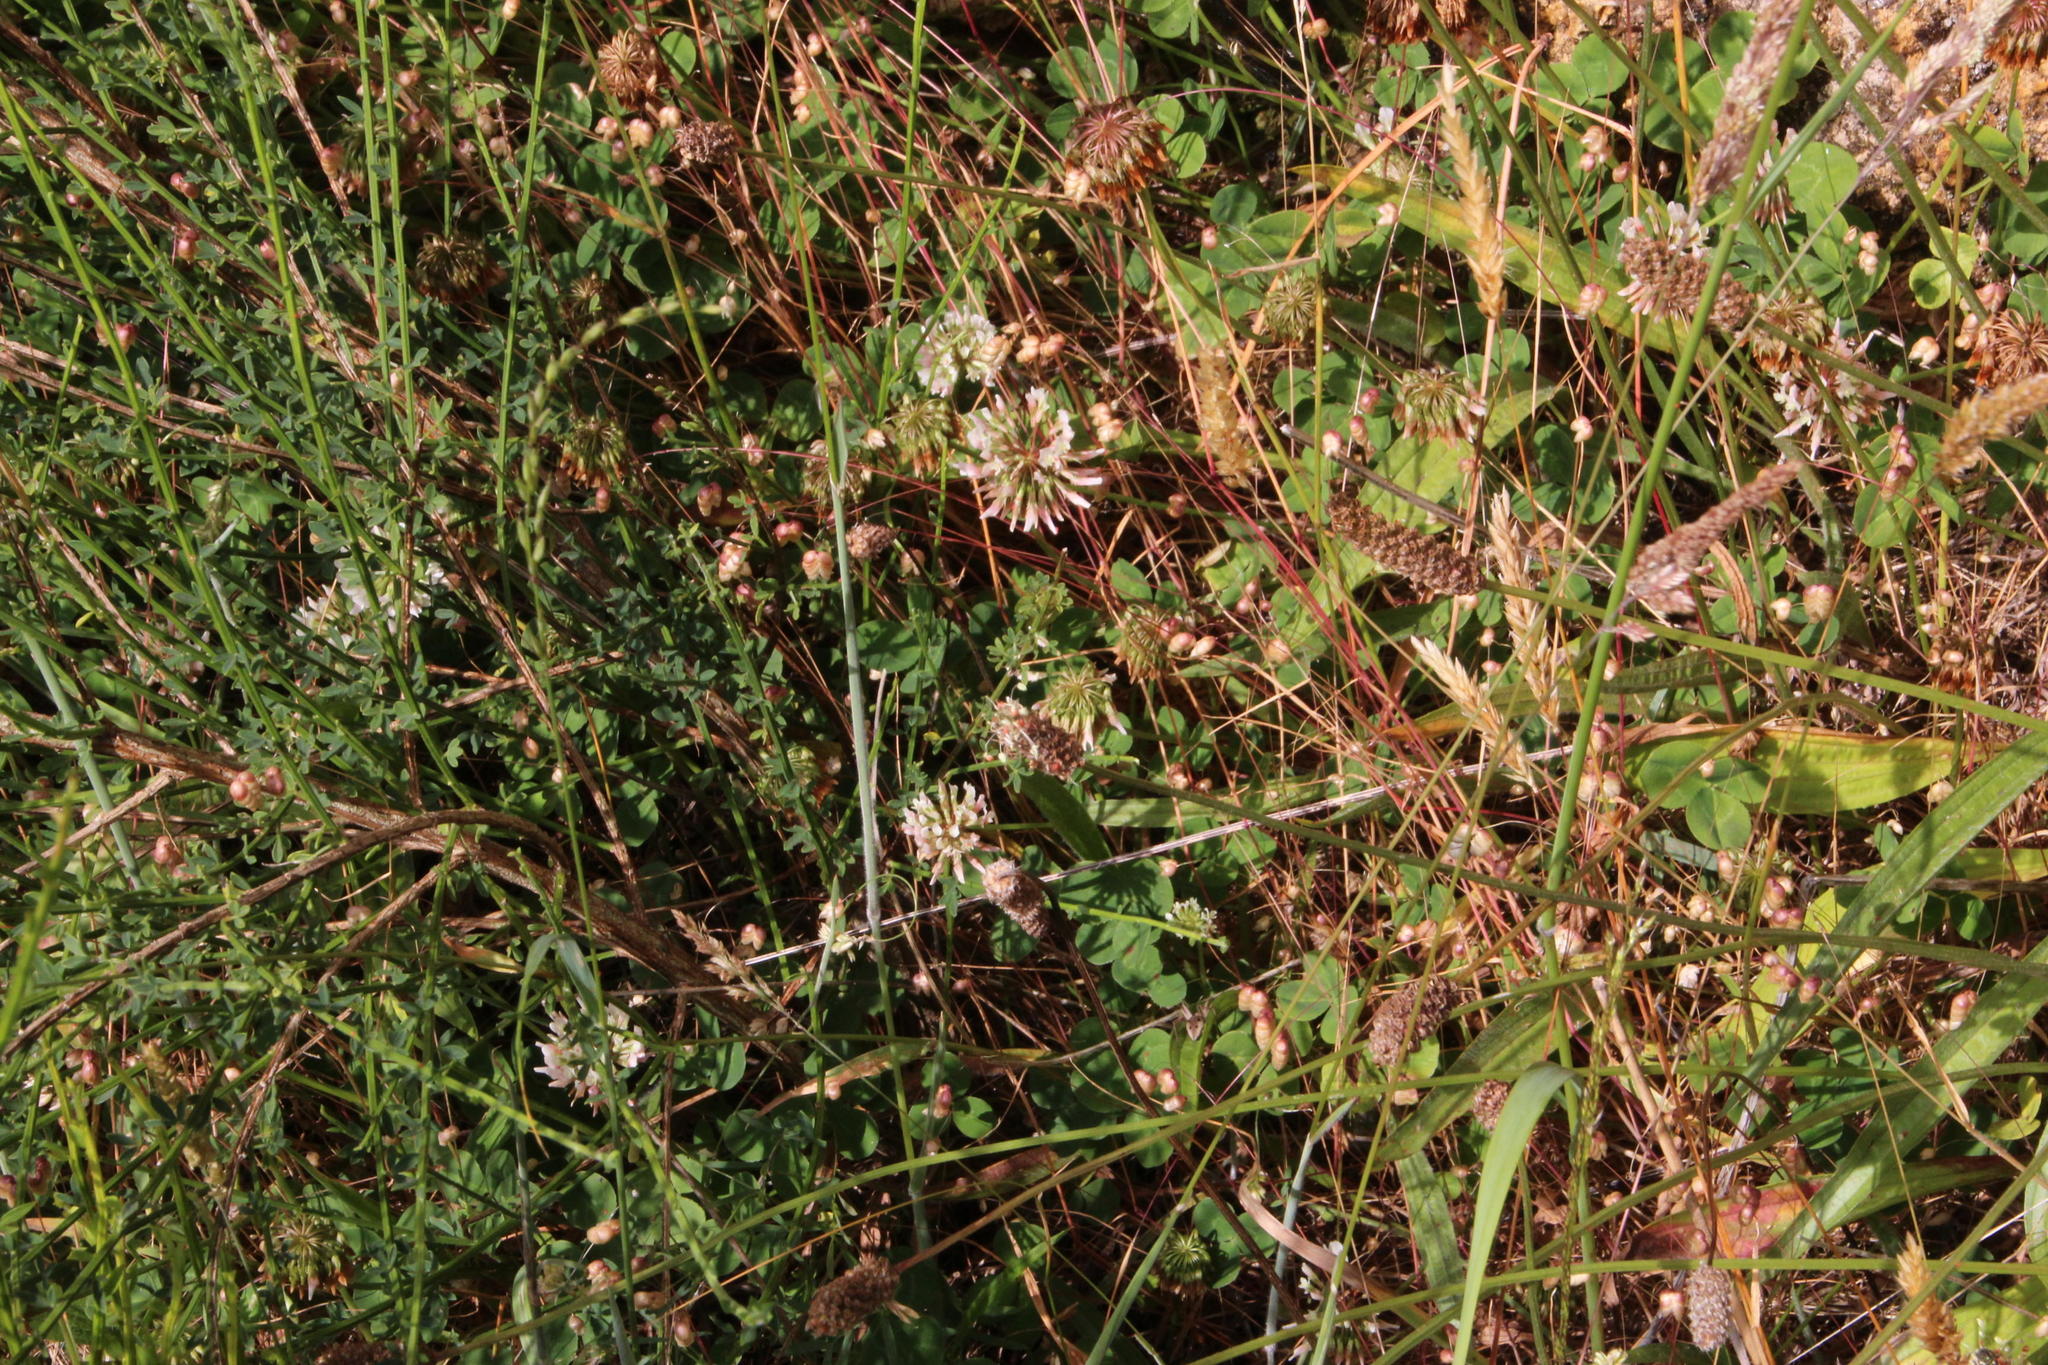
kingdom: Plantae
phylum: Tracheophyta
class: Magnoliopsida
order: Fabales
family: Fabaceae
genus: Trifolium
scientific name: Trifolium repens
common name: White clover
